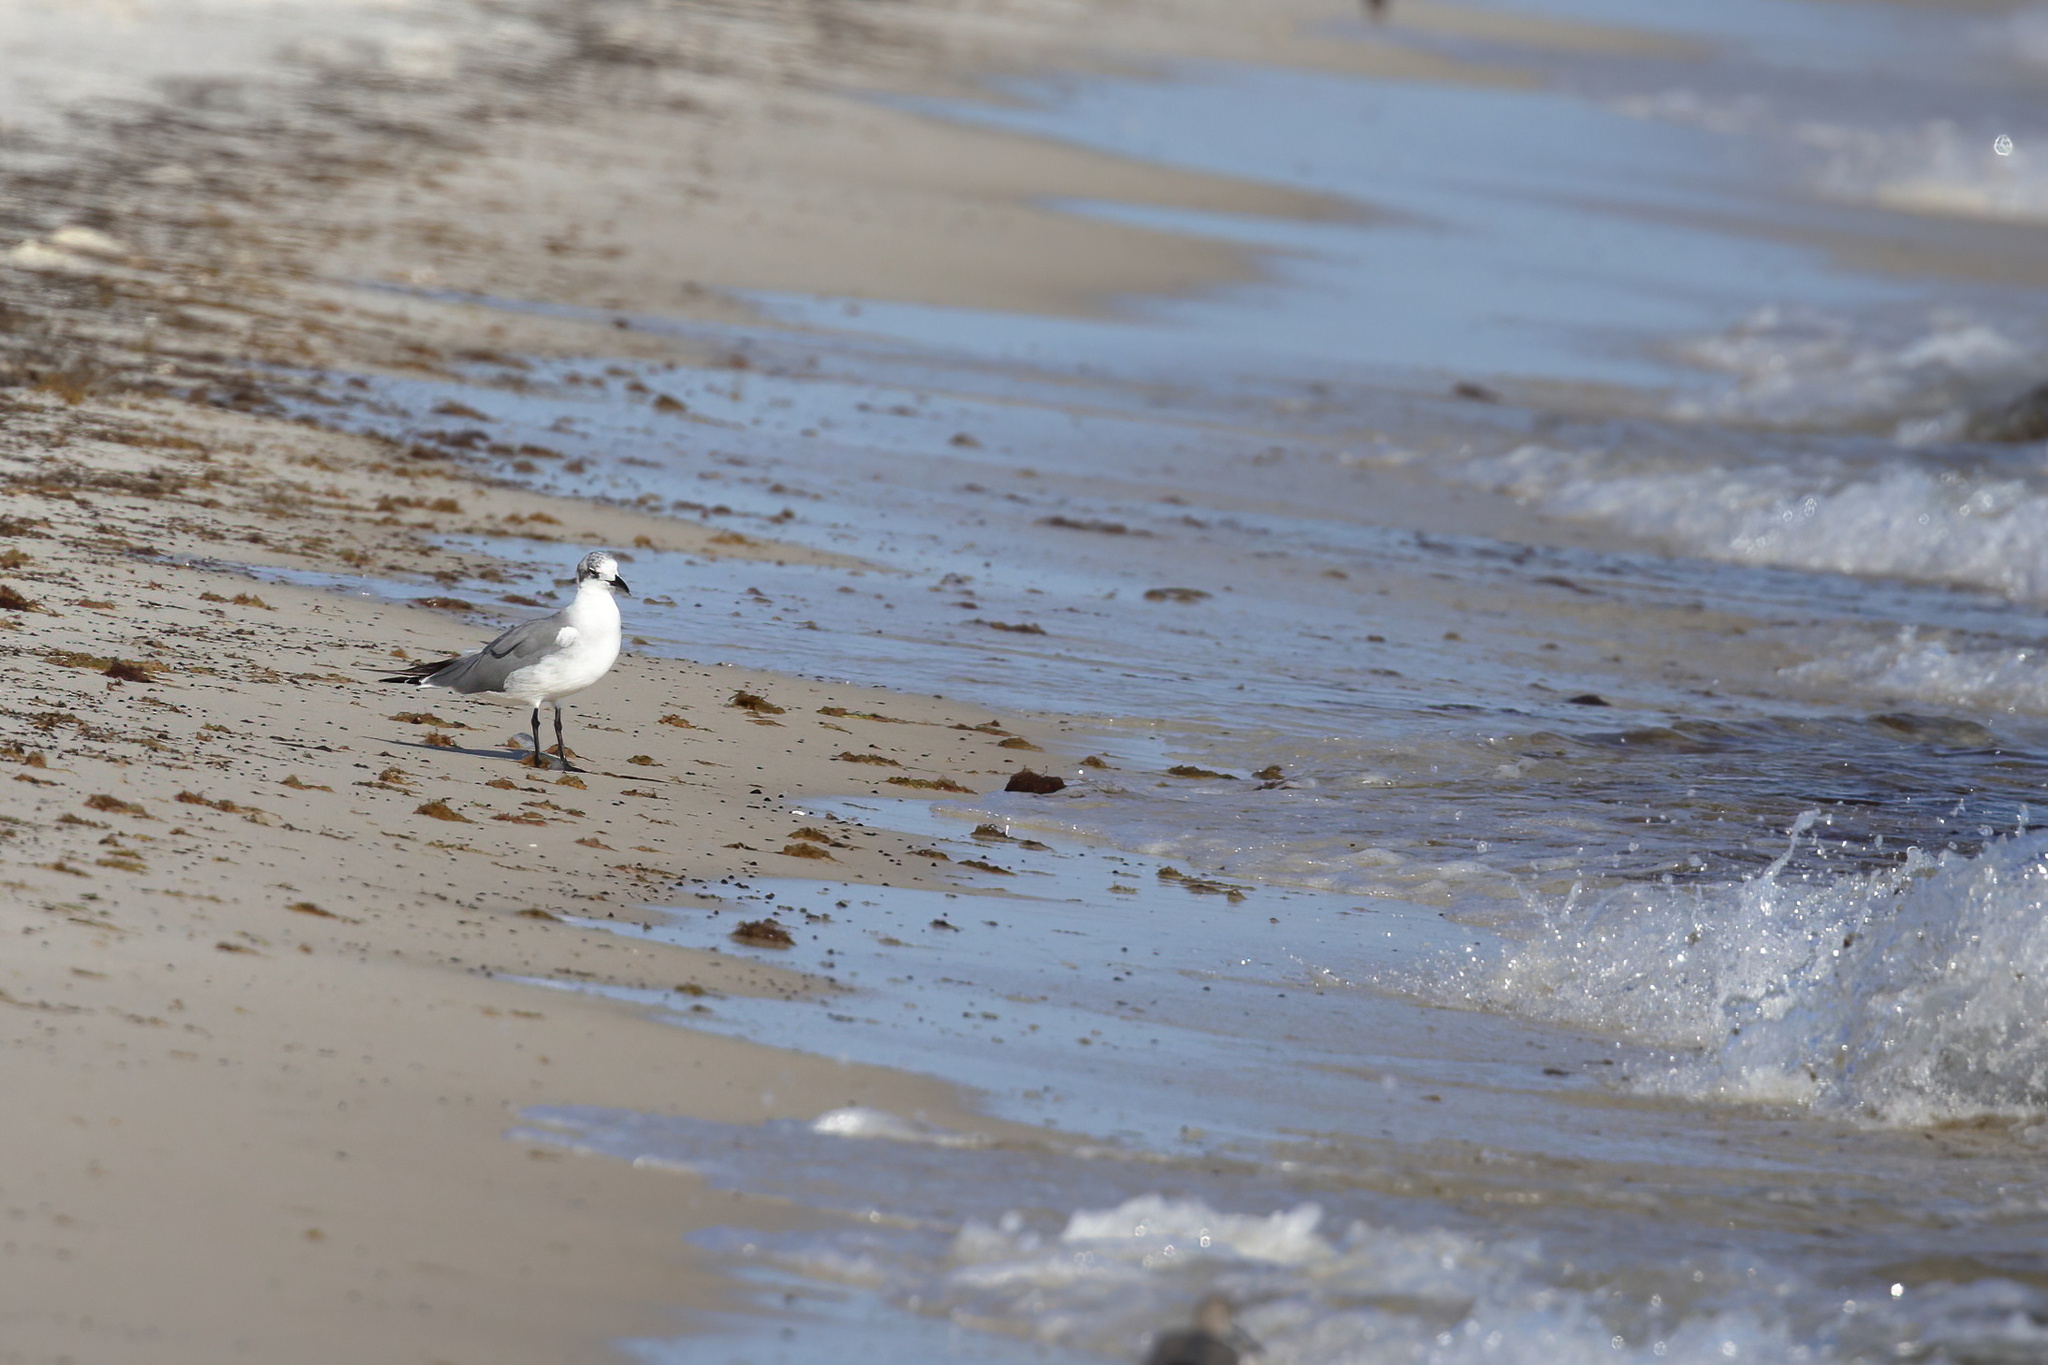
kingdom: Animalia
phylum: Chordata
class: Aves
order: Charadriiformes
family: Laridae
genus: Leucophaeus
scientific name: Leucophaeus atricilla
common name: Laughing gull
